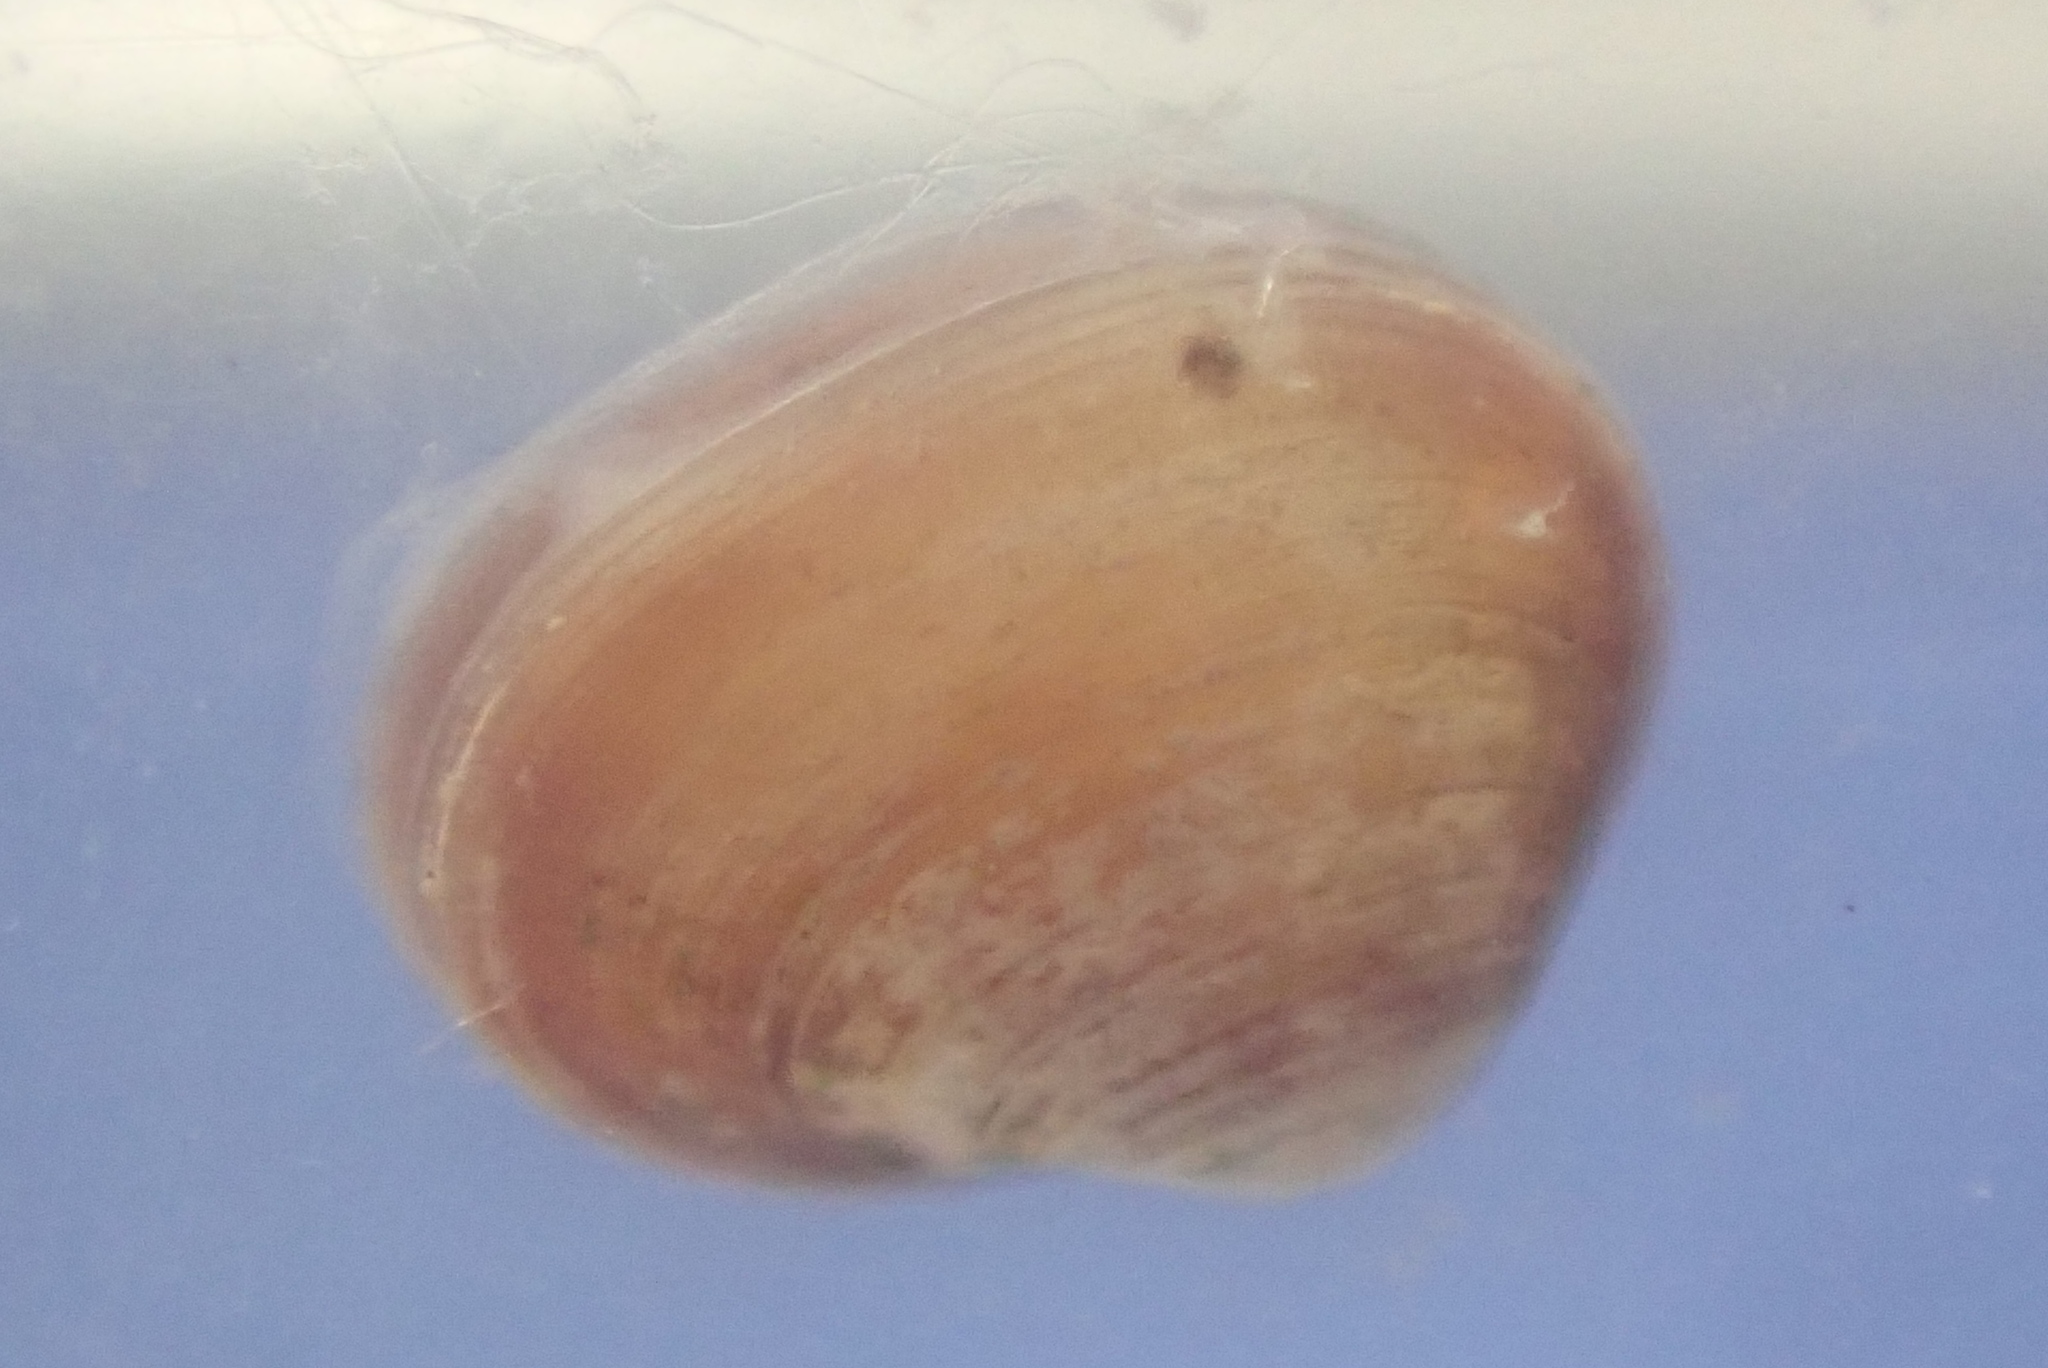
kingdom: Animalia
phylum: Mollusca
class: Bivalvia
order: Galeommatida
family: Lasaeidae
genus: Lasaea
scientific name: Lasaea hinemoa
